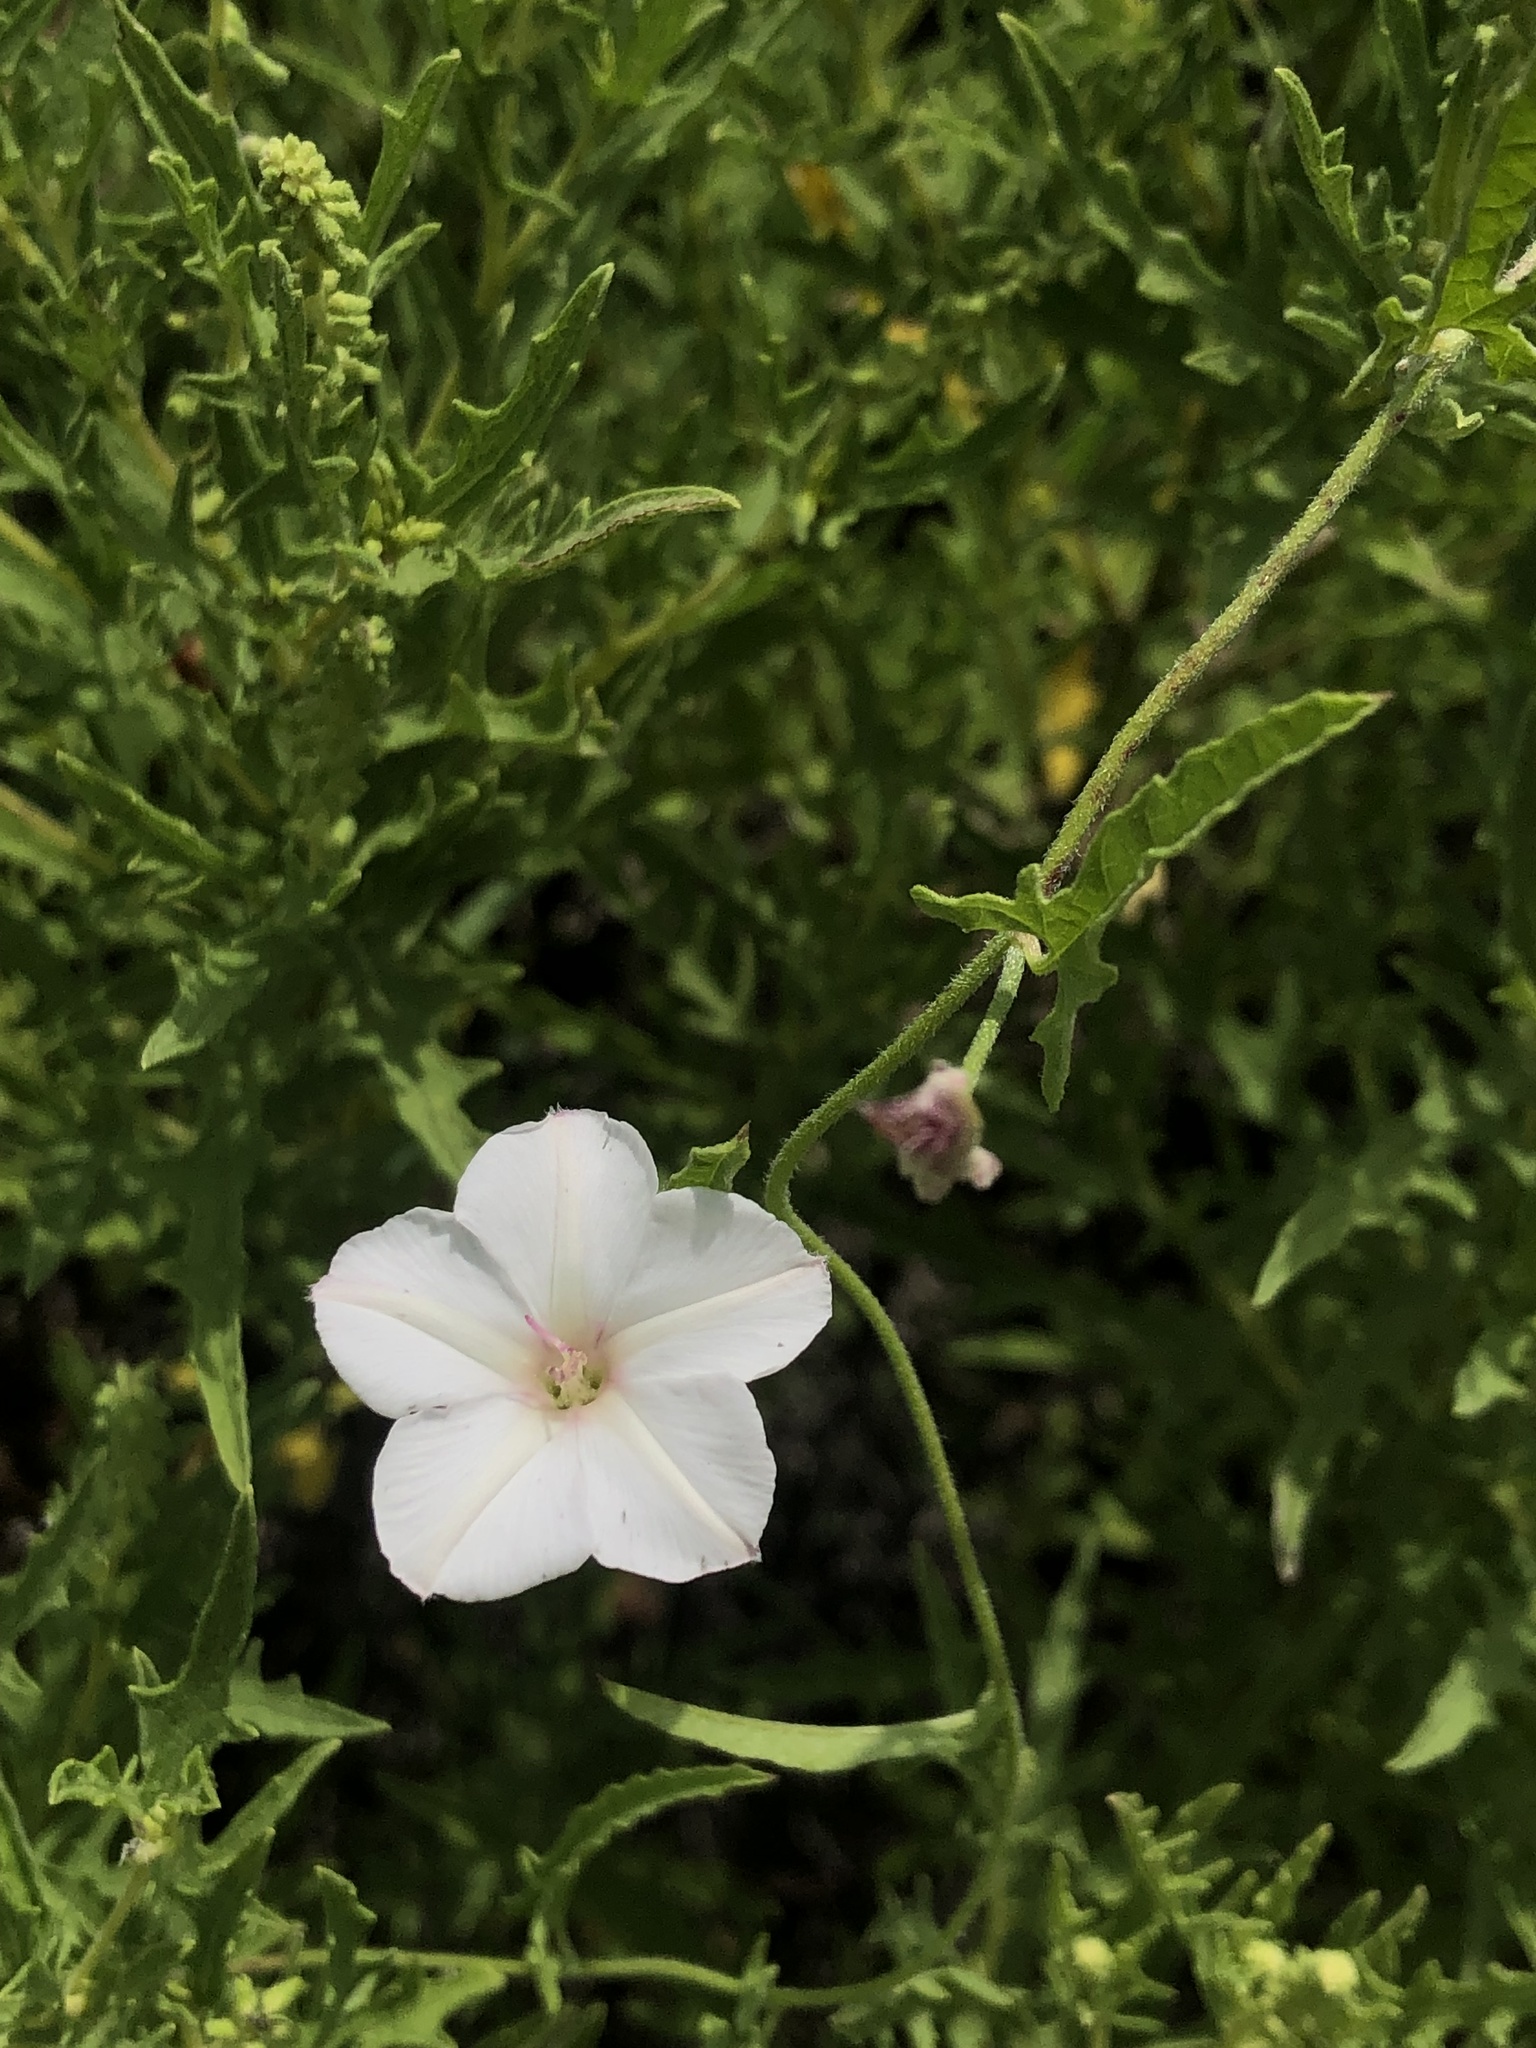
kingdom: Plantae
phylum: Tracheophyta
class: Magnoliopsida
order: Solanales
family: Convolvulaceae
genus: Convolvulus
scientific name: Convolvulus equitans
